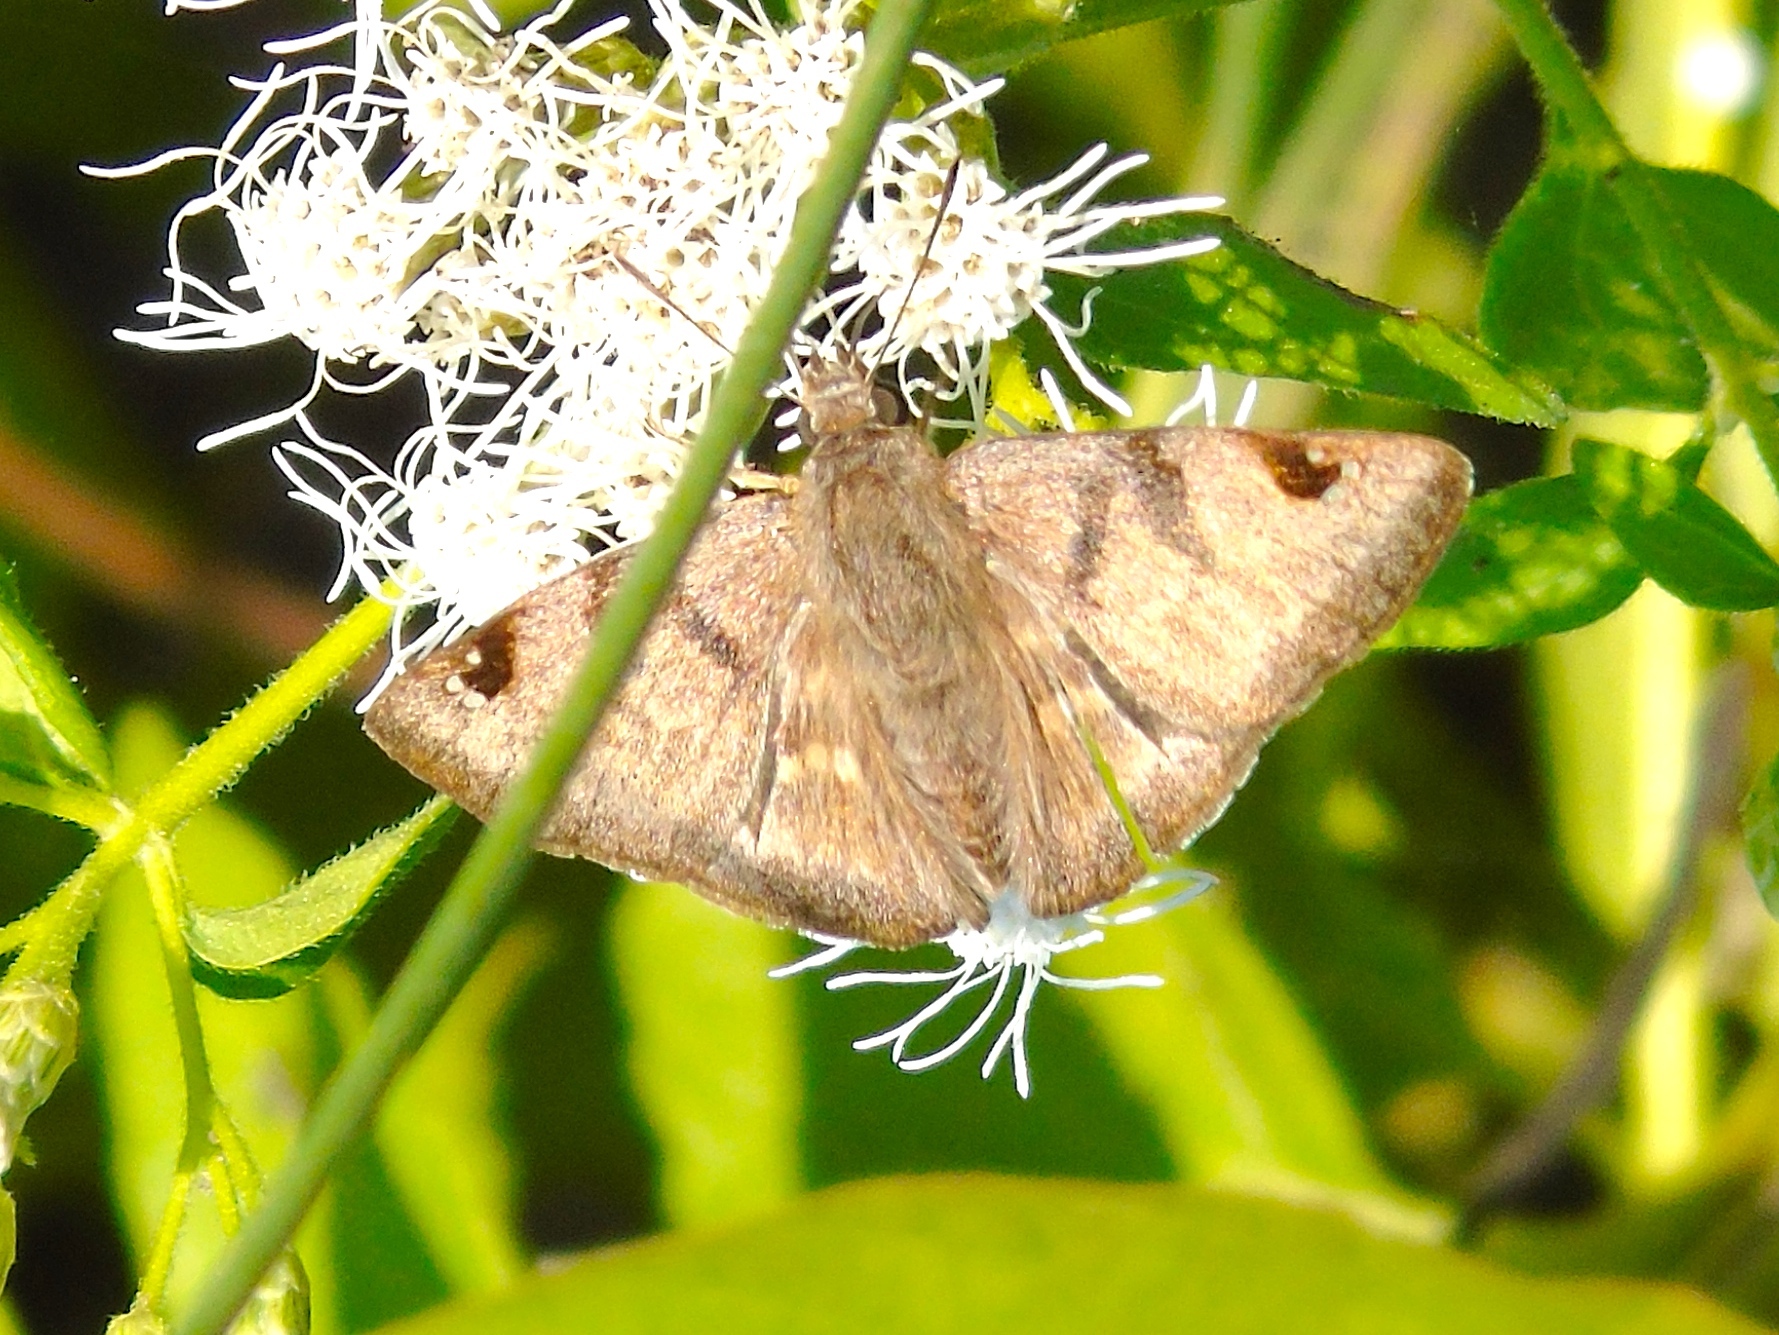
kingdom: Animalia
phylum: Arthropoda
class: Insecta
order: Lepidoptera
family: Hesperiidae
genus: Arteurotia
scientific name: Arteurotia tractipennis
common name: Starred skipper
